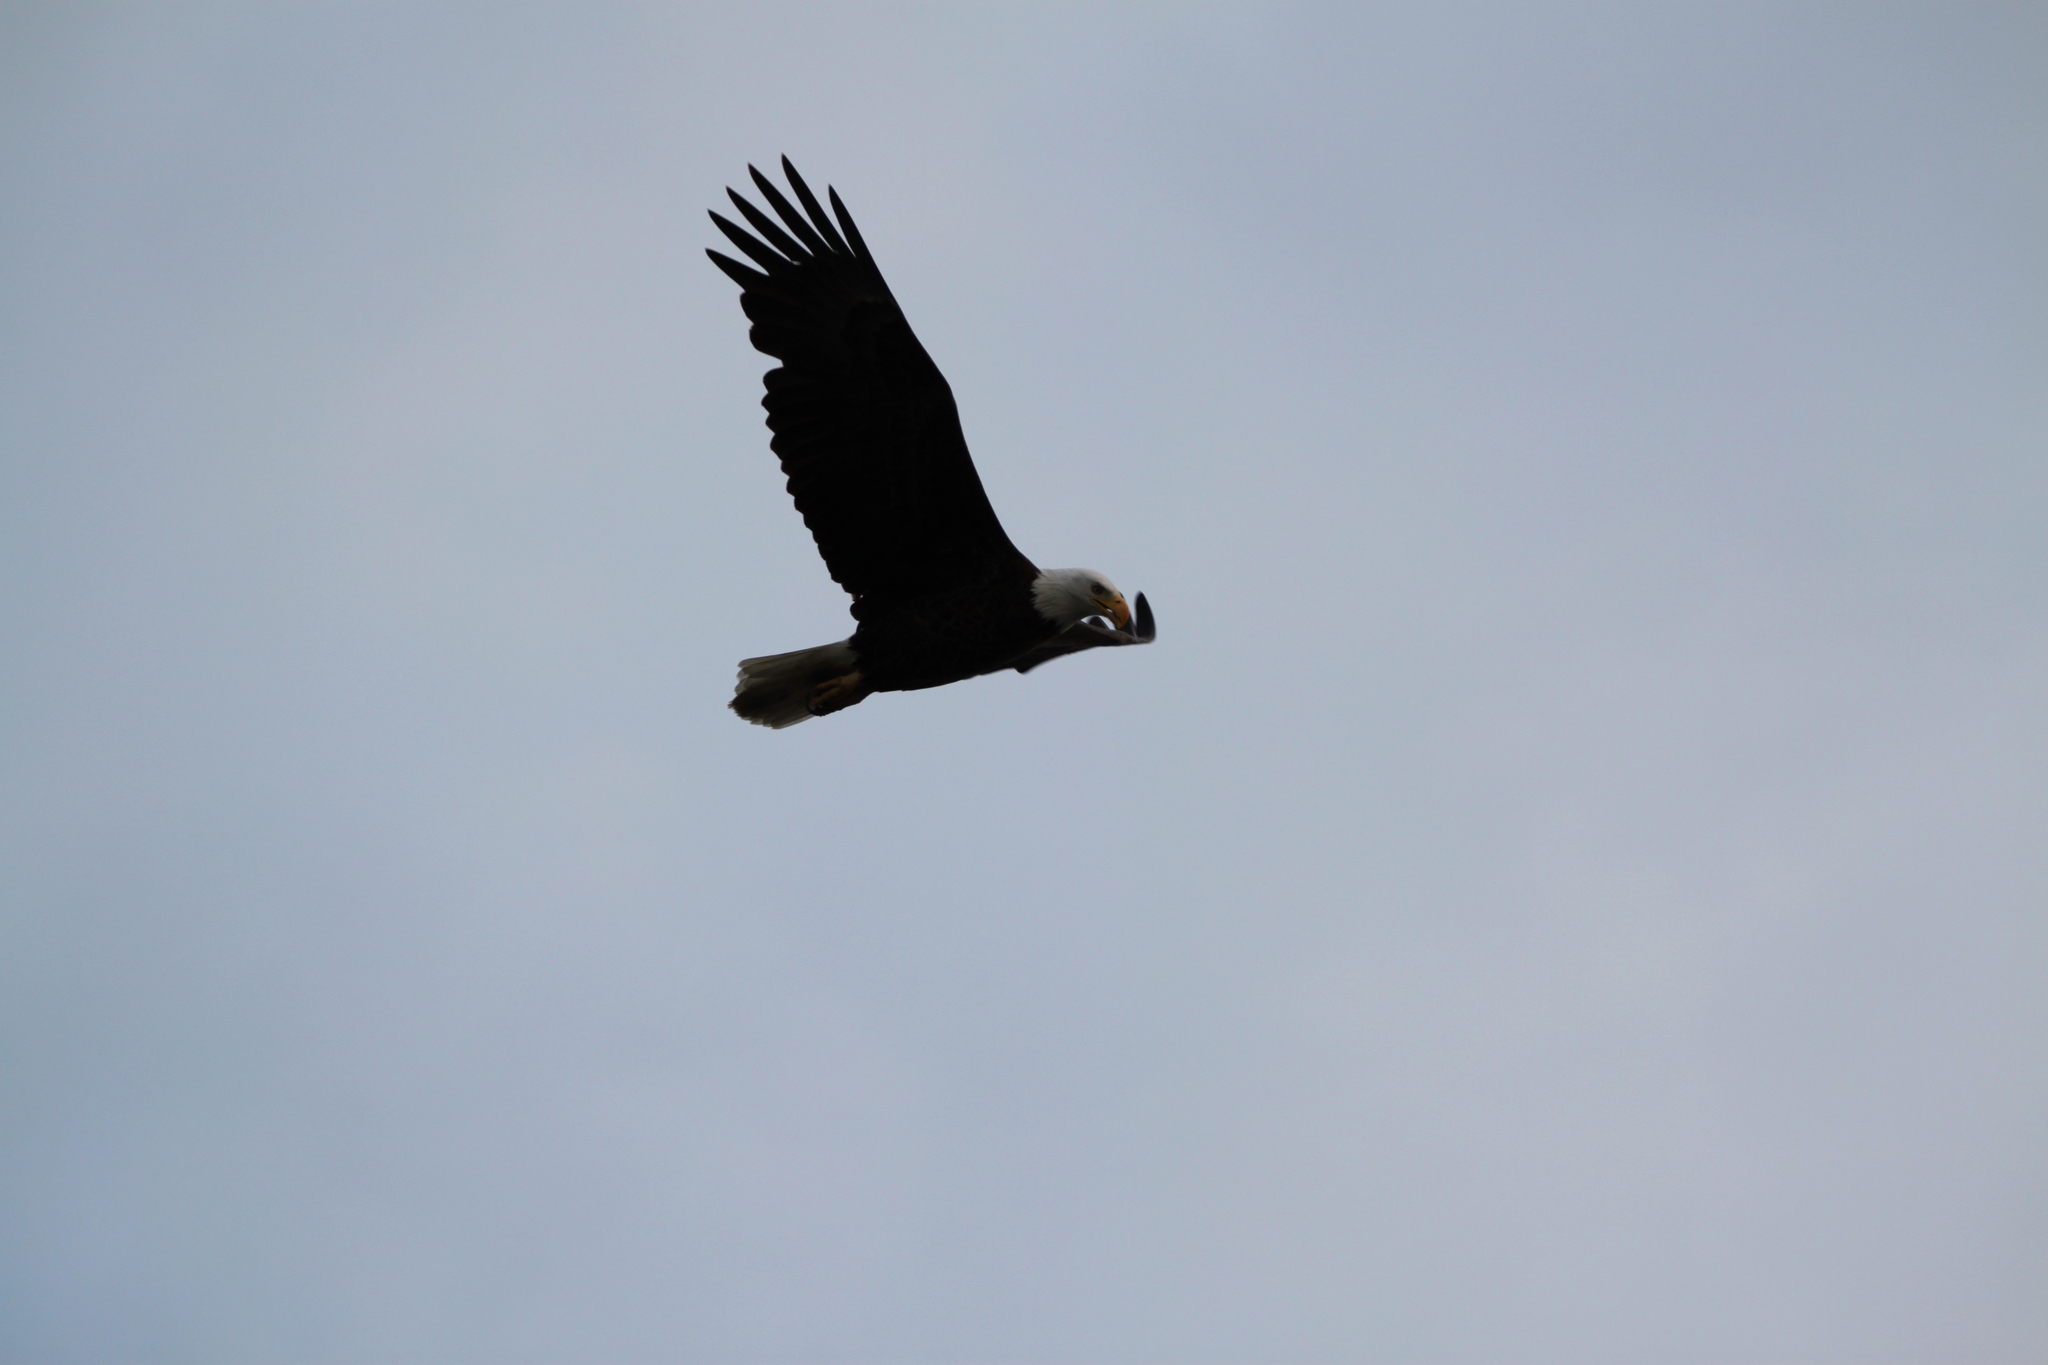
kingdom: Animalia
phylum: Chordata
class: Aves
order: Accipitriformes
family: Accipitridae
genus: Haliaeetus
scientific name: Haliaeetus leucocephalus
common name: Bald eagle
